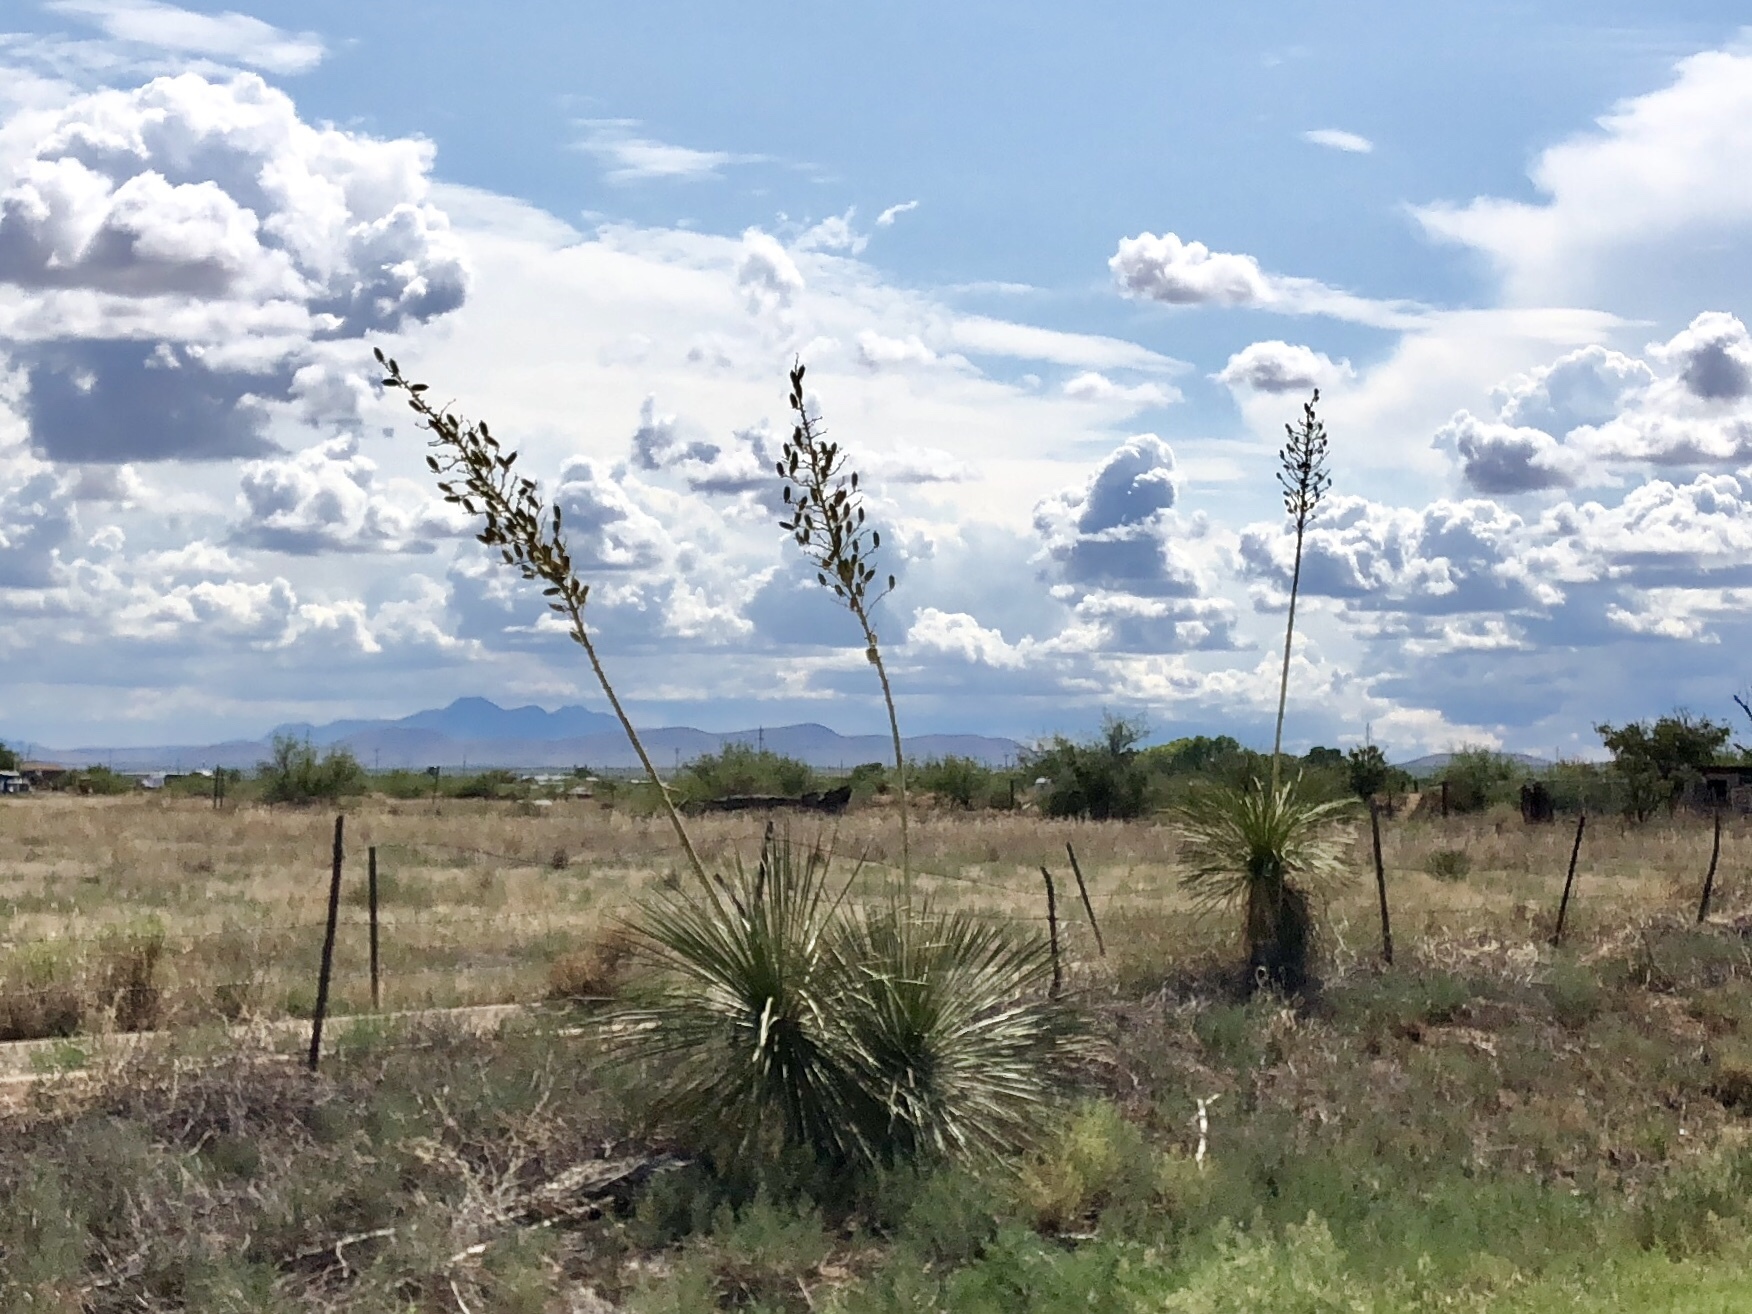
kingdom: Plantae
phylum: Tracheophyta
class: Liliopsida
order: Asparagales
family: Asparagaceae
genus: Yucca
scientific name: Yucca elata
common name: Palmella
